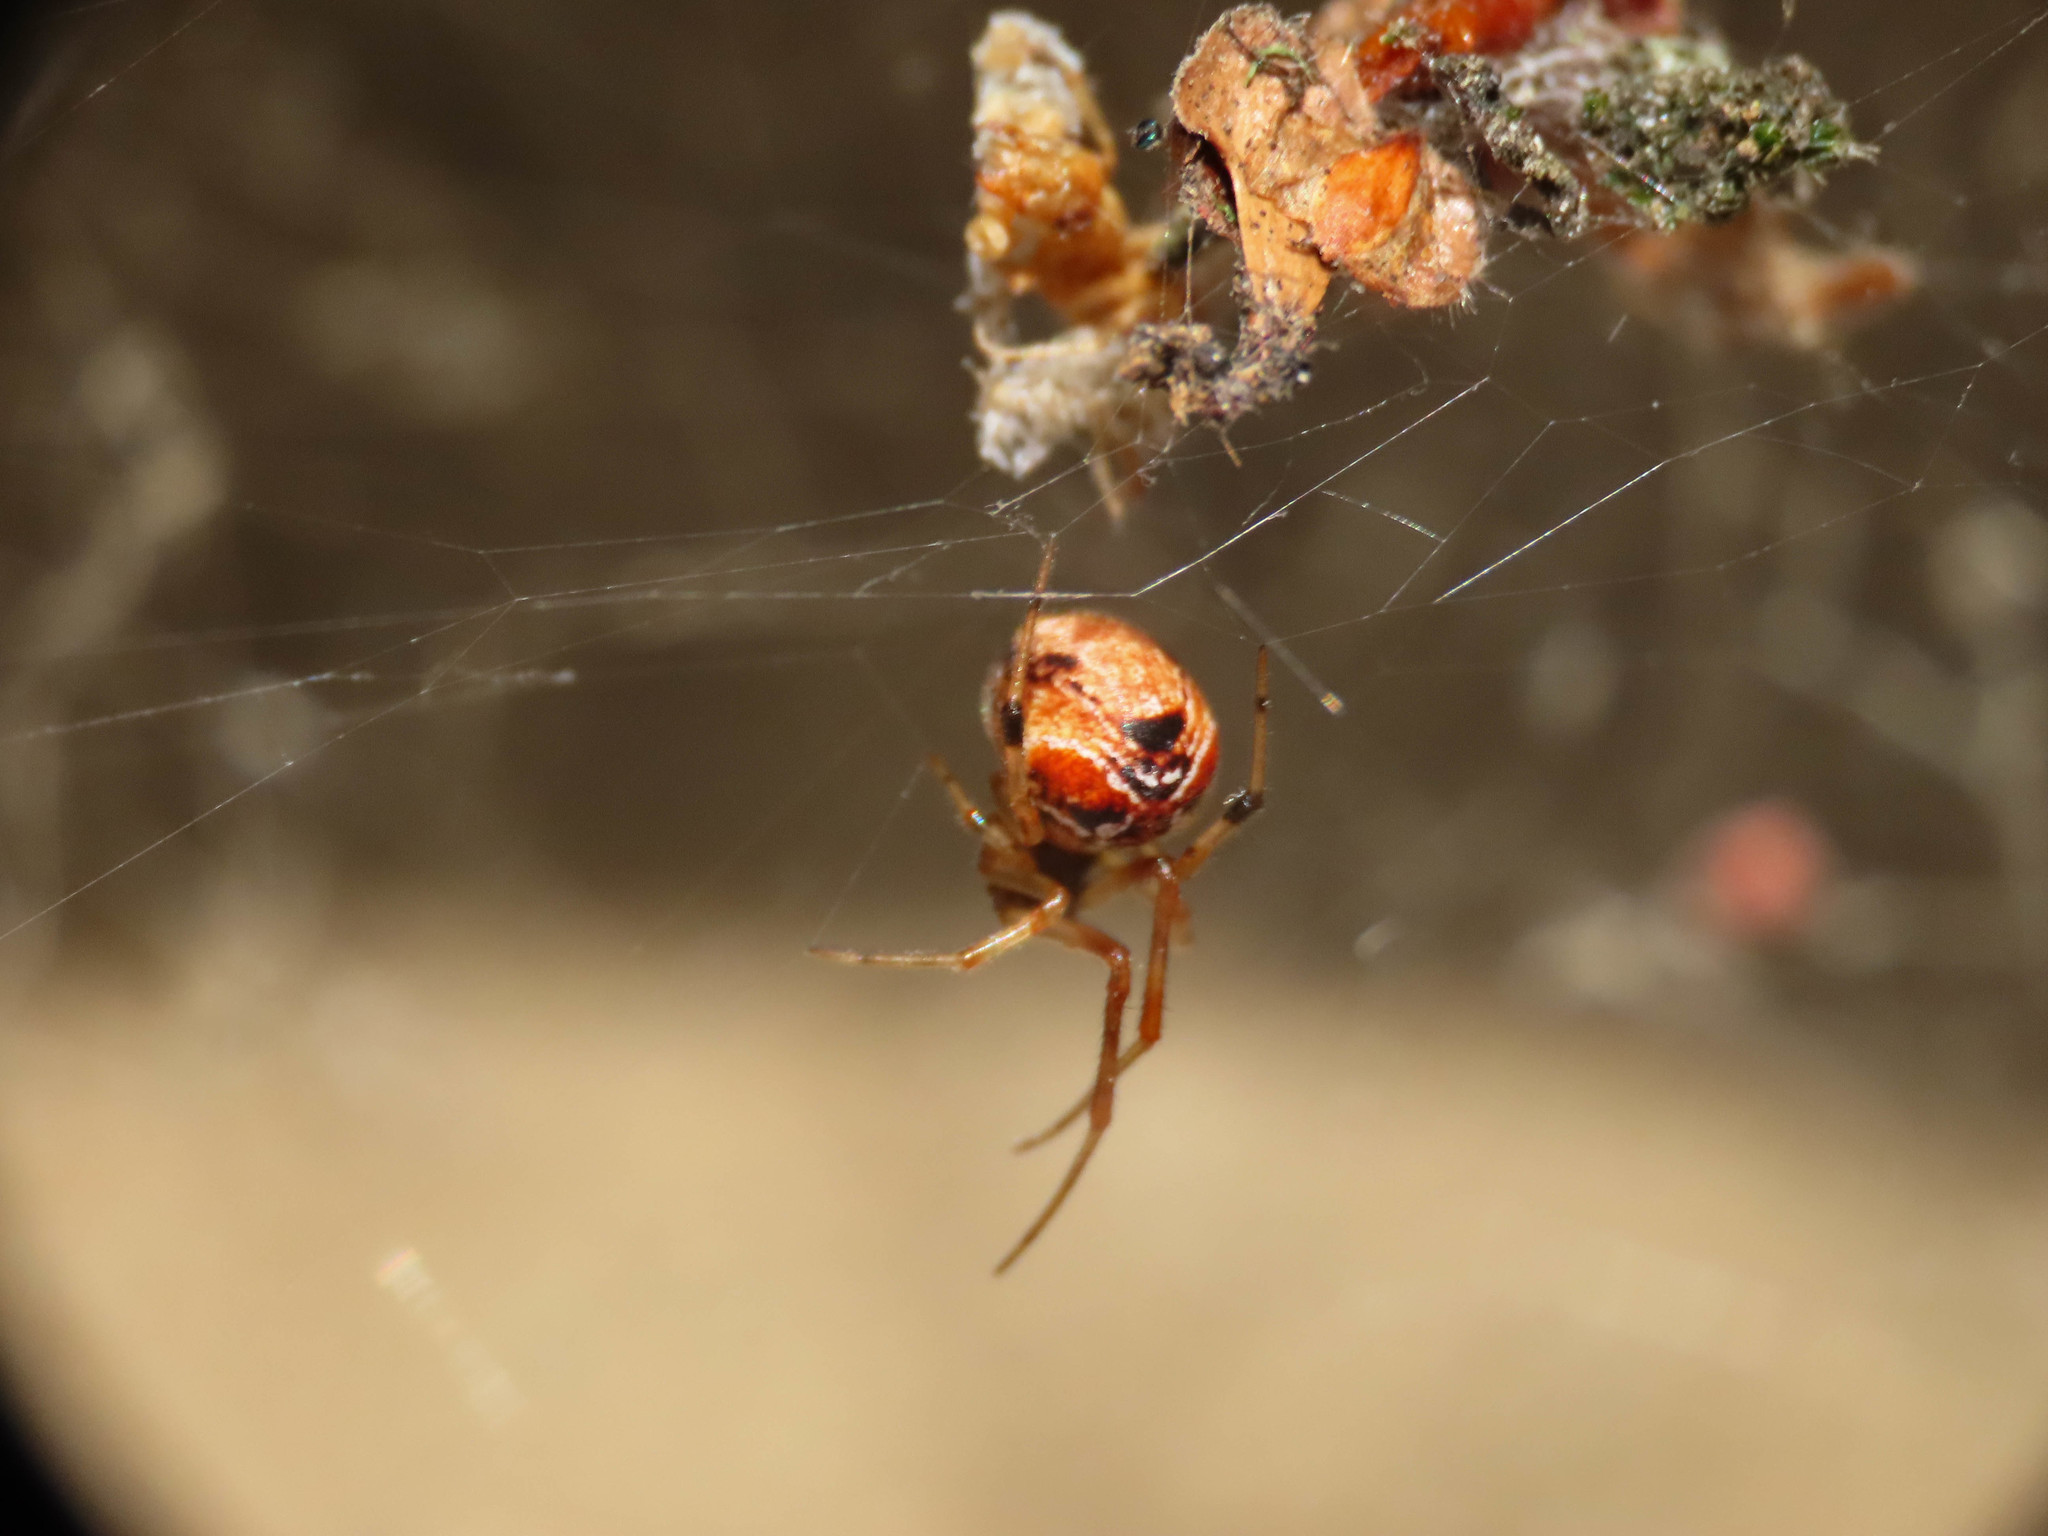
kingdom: Animalia
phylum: Arthropoda
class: Arachnida
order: Araneae
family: Theridiidae
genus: Parasteatoda
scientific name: Parasteatoda lunata
